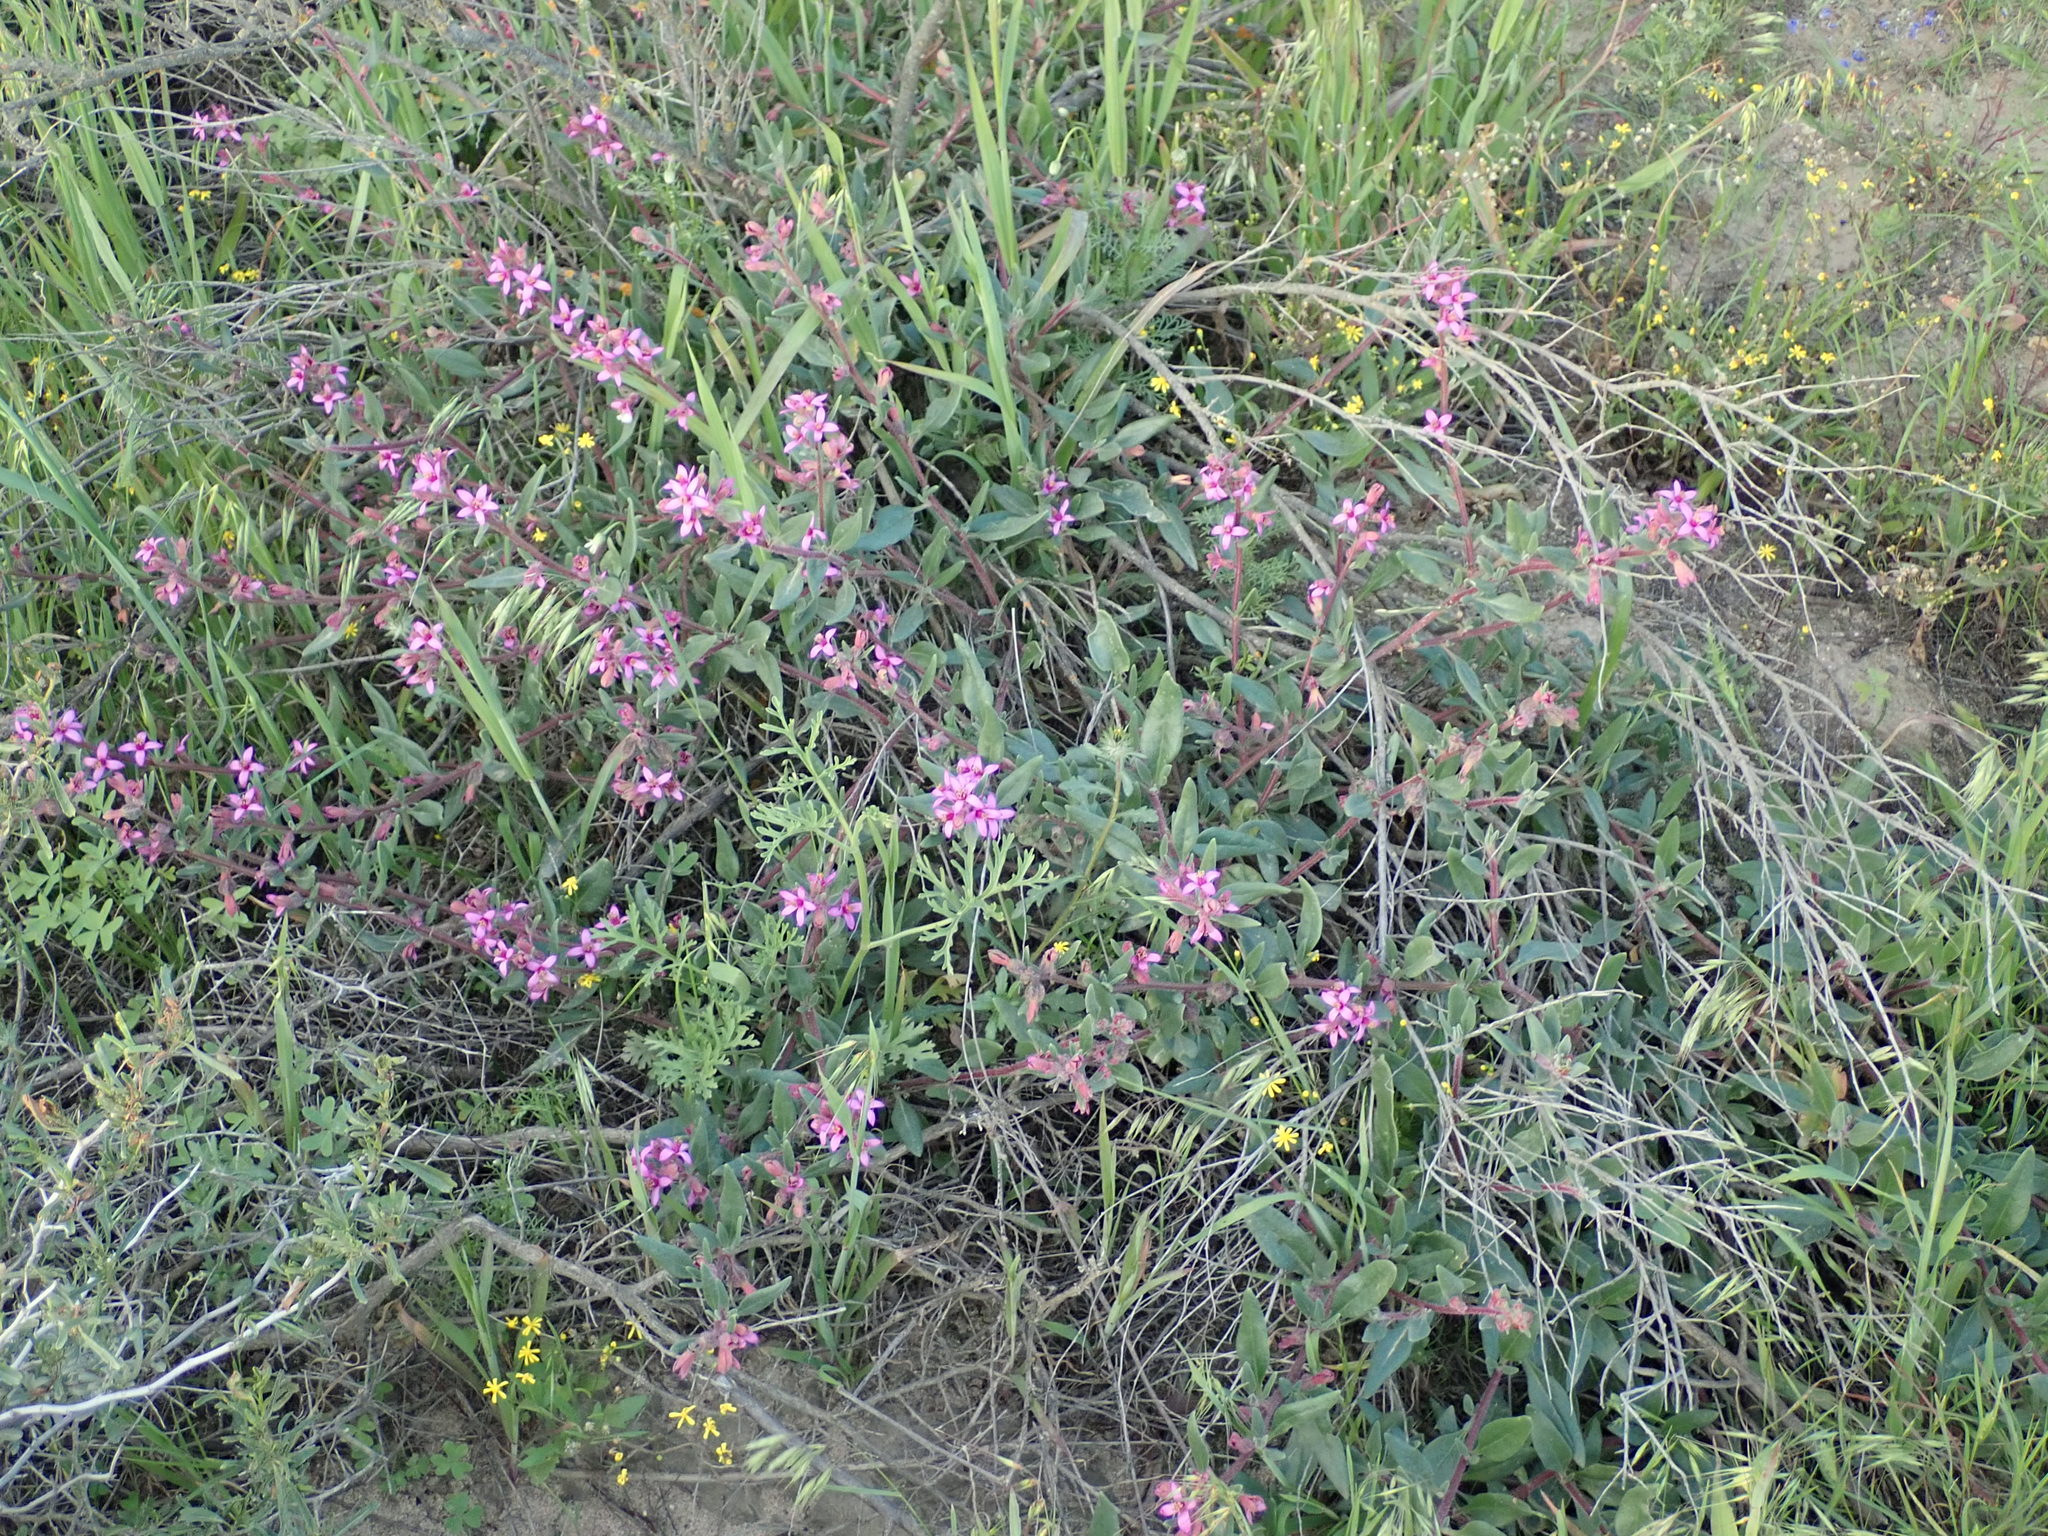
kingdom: Plantae
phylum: Tracheophyta
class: Magnoliopsida
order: Caryophyllales
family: Aizoaceae
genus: Tetragonia
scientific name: Tetragonia rosea
